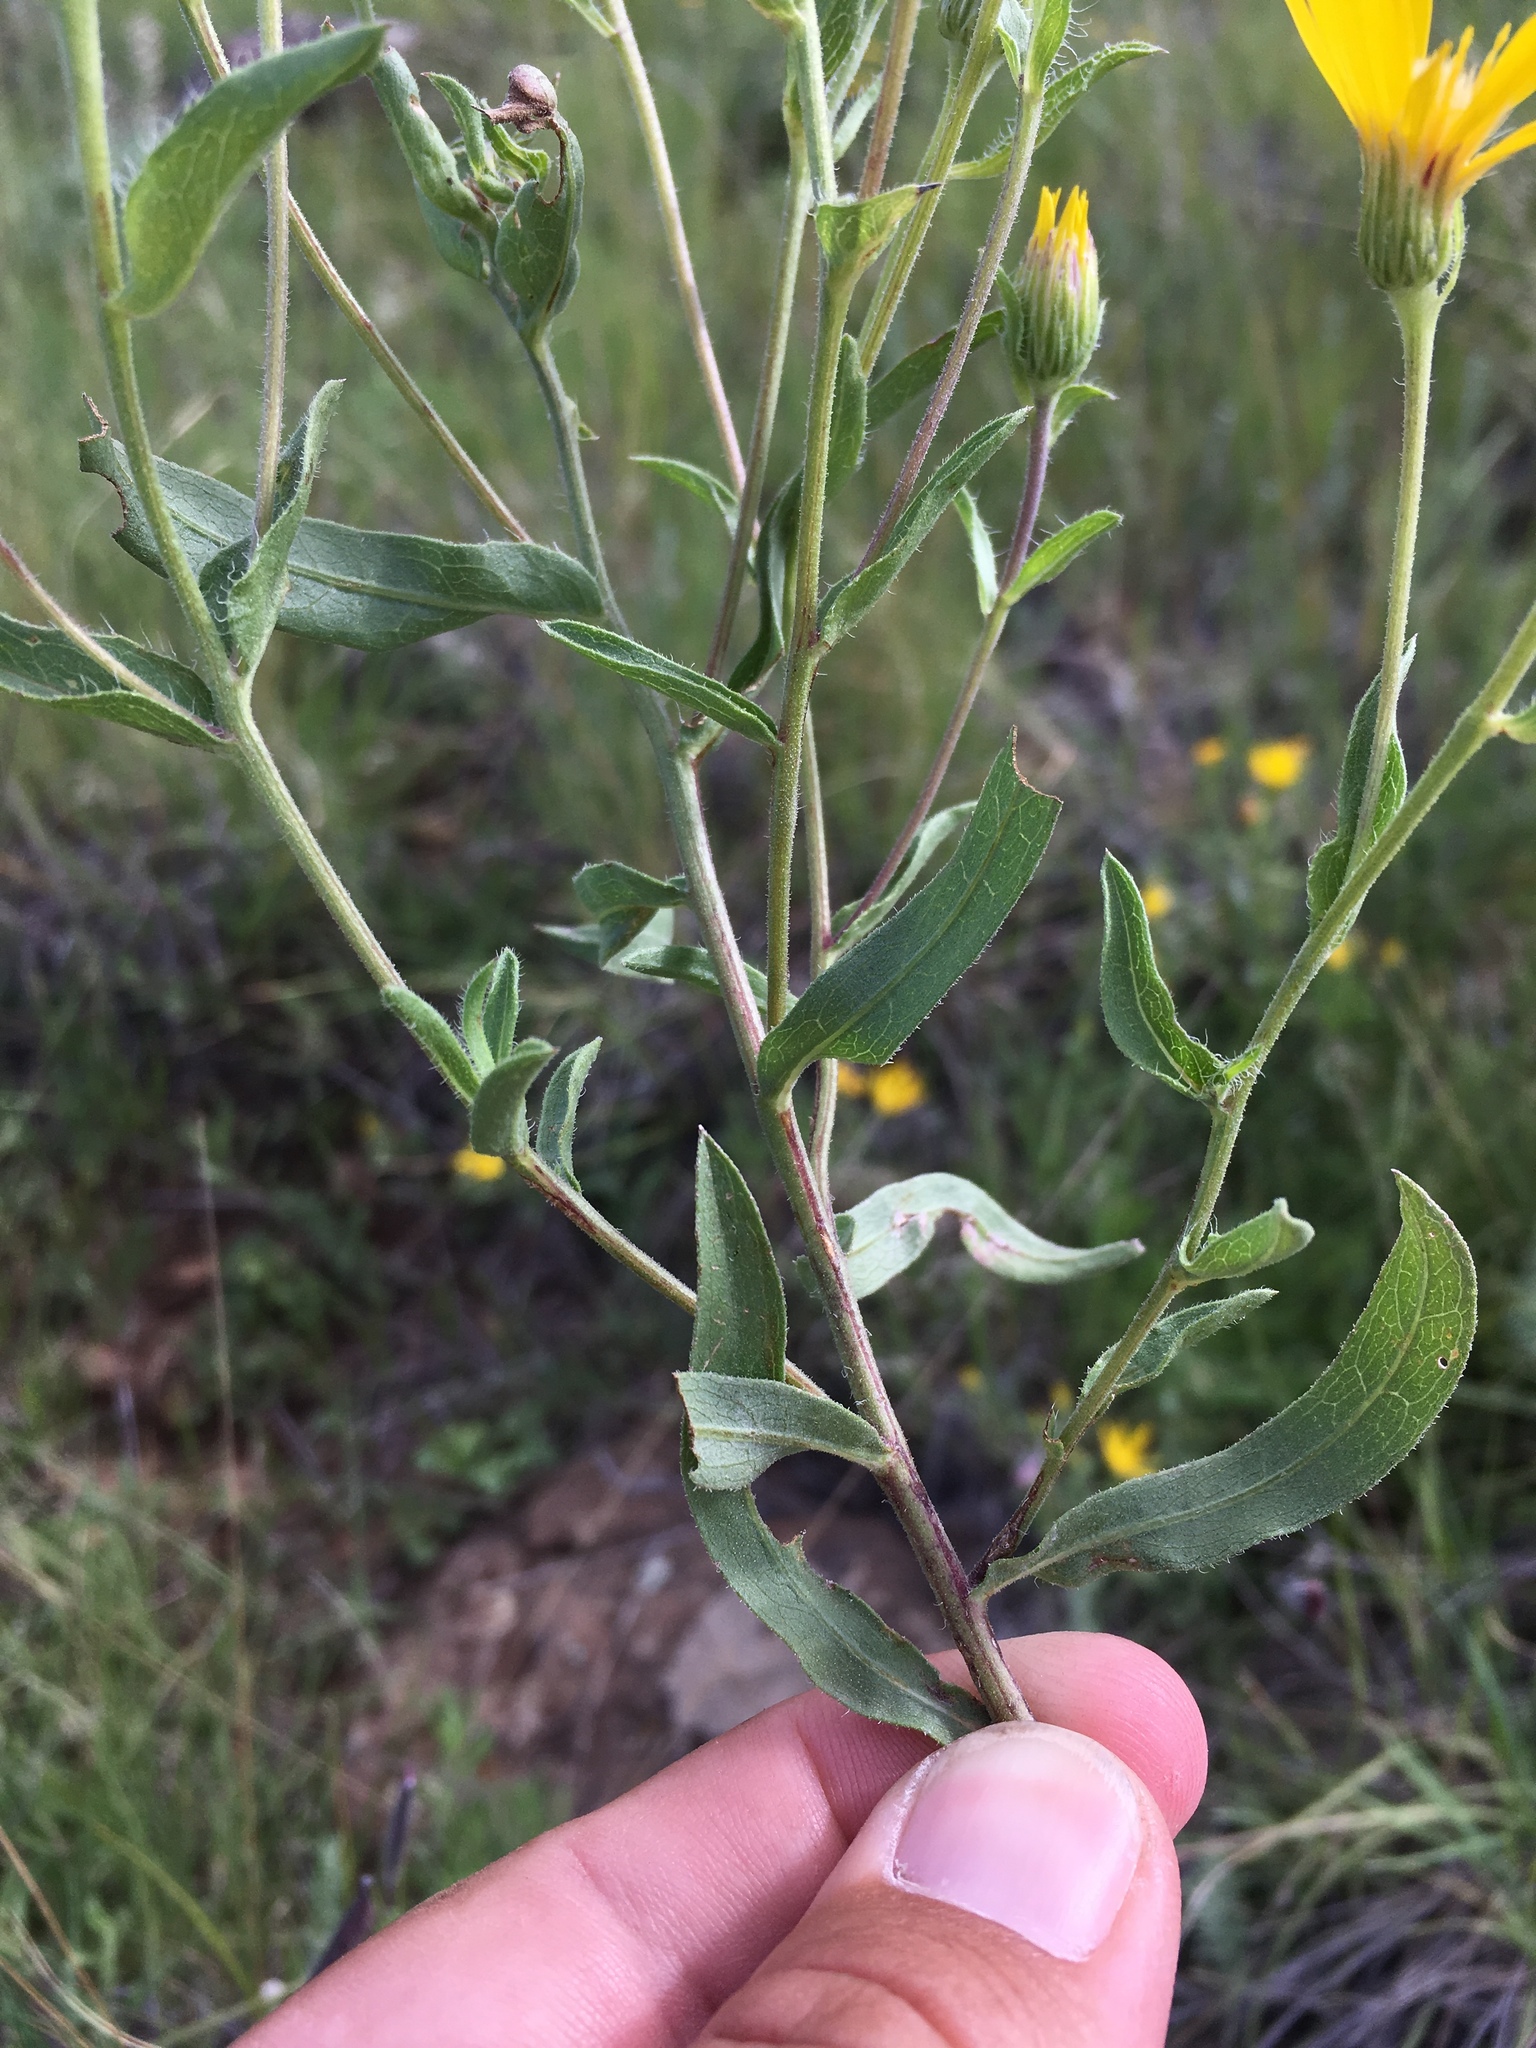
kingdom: Plantae
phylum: Tracheophyta
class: Magnoliopsida
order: Asterales
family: Asteraceae
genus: Heterotheca
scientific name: Heterotheca nitidula
